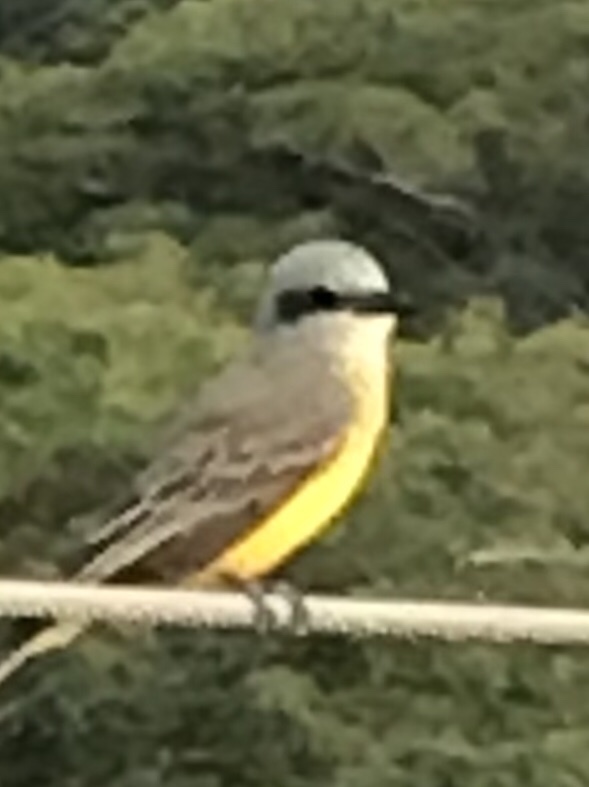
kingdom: Animalia
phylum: Chordata
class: Aves
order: Passeriformes
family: Tyrannidae
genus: Tyrannus
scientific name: Tyrannus melancholicus
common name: Tropical kingbird
